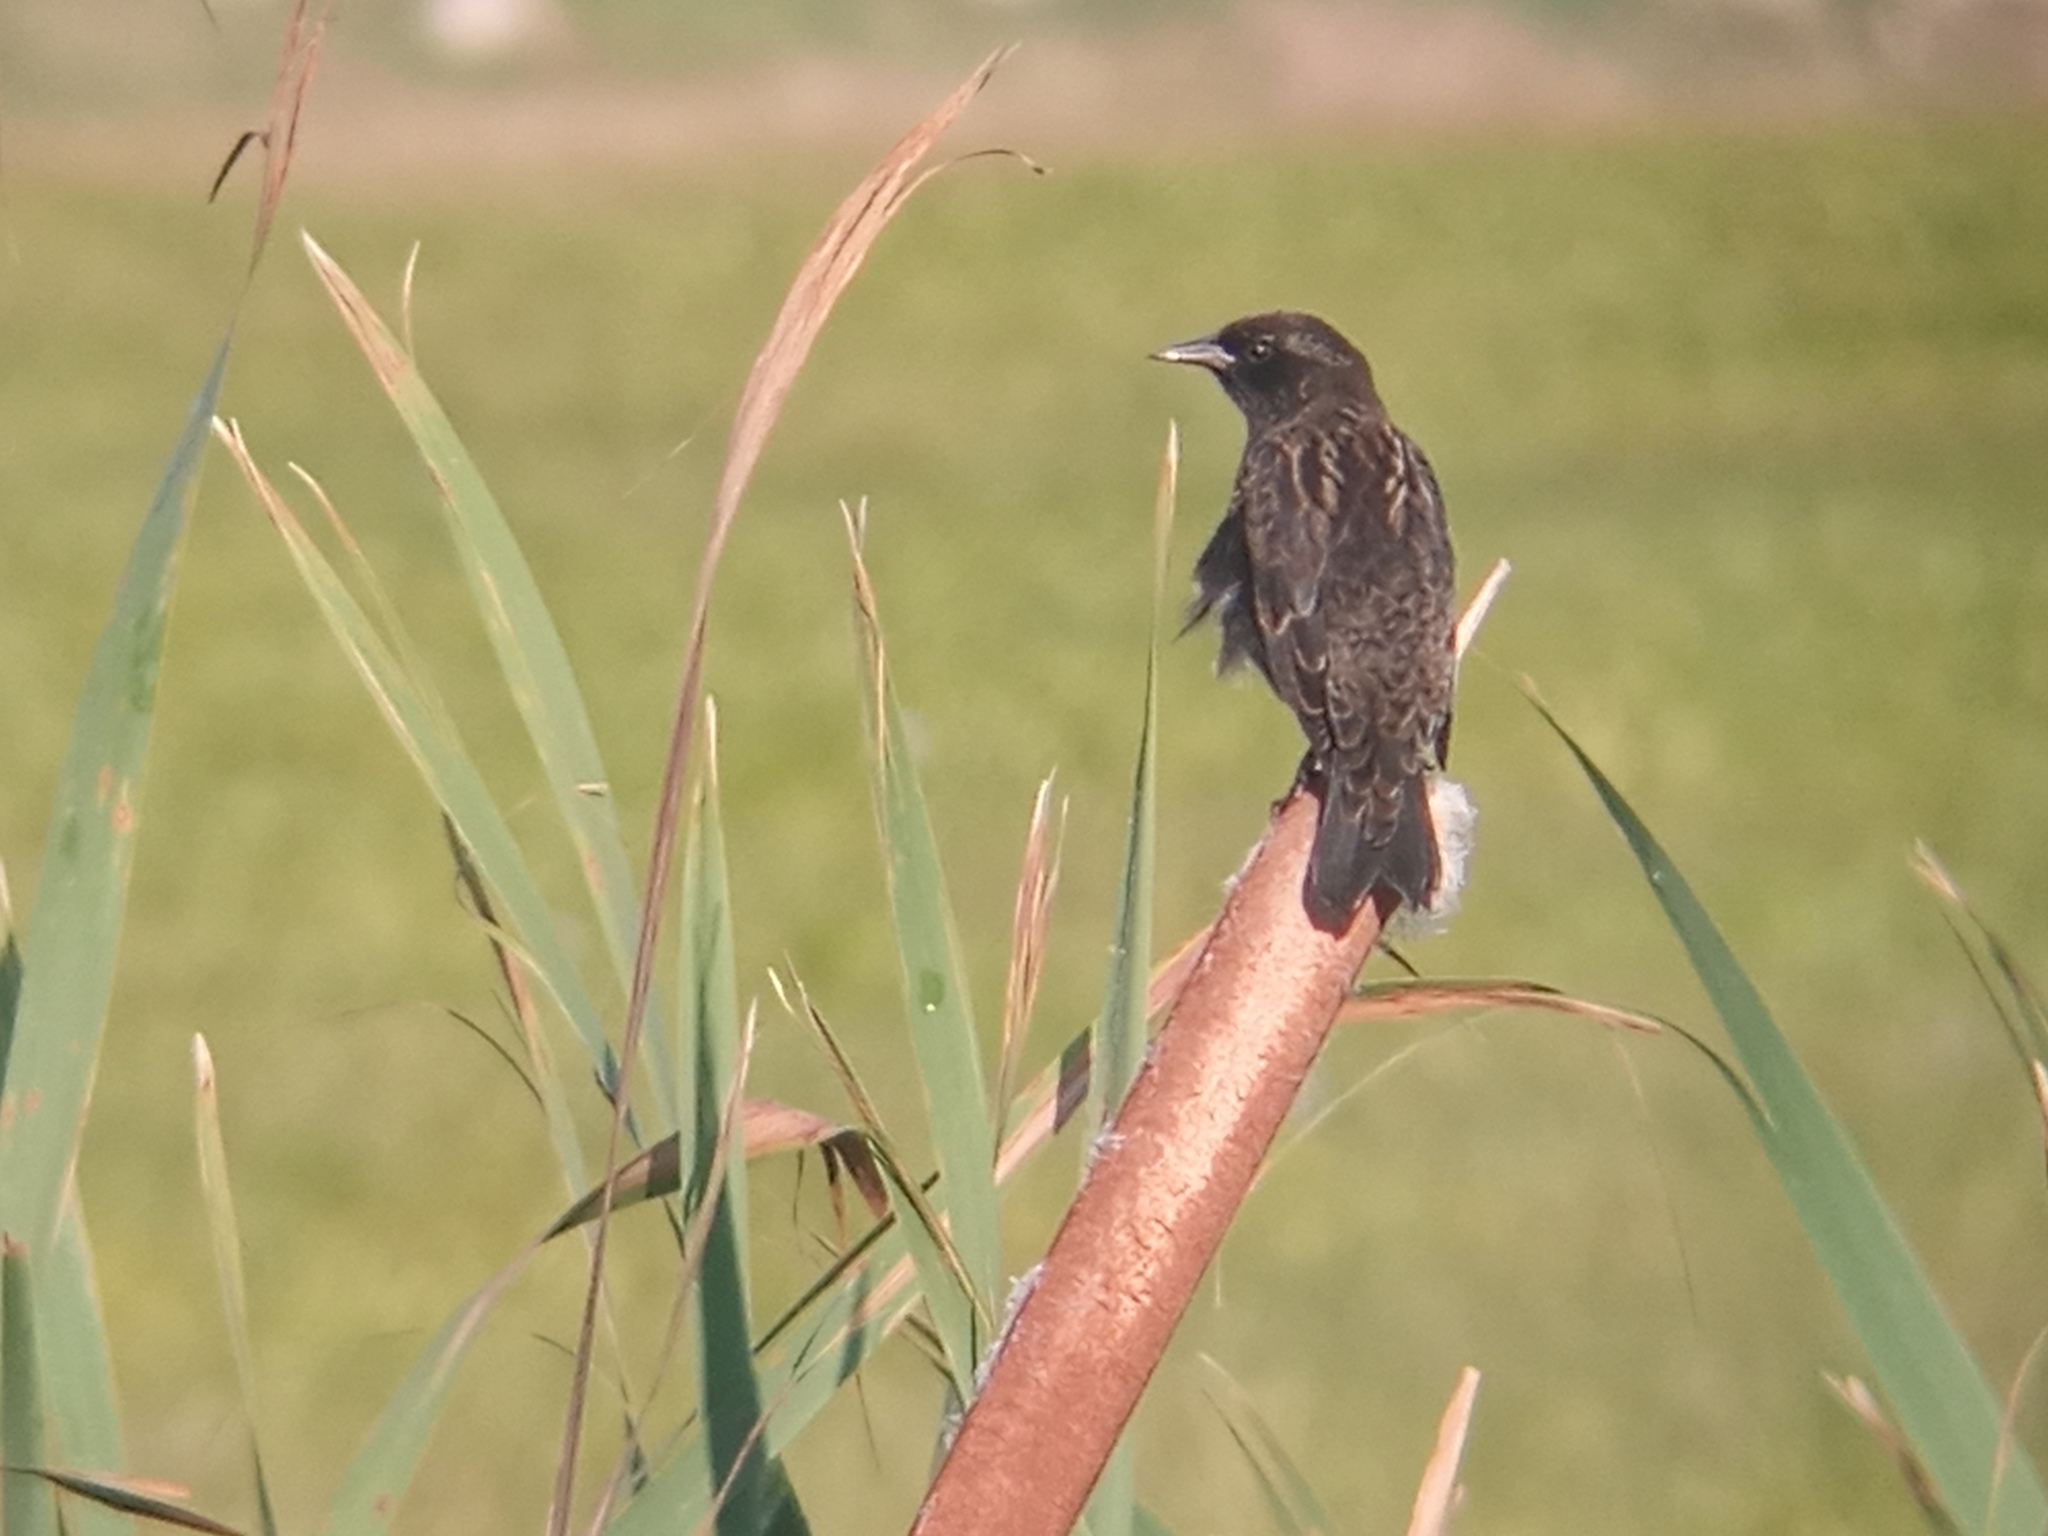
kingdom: Animalia
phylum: Chordata
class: Aves
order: Passeriformes
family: Icteridae
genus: Agelasticus
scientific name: Agelasticus thilius
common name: Yellow-winged blackbird
